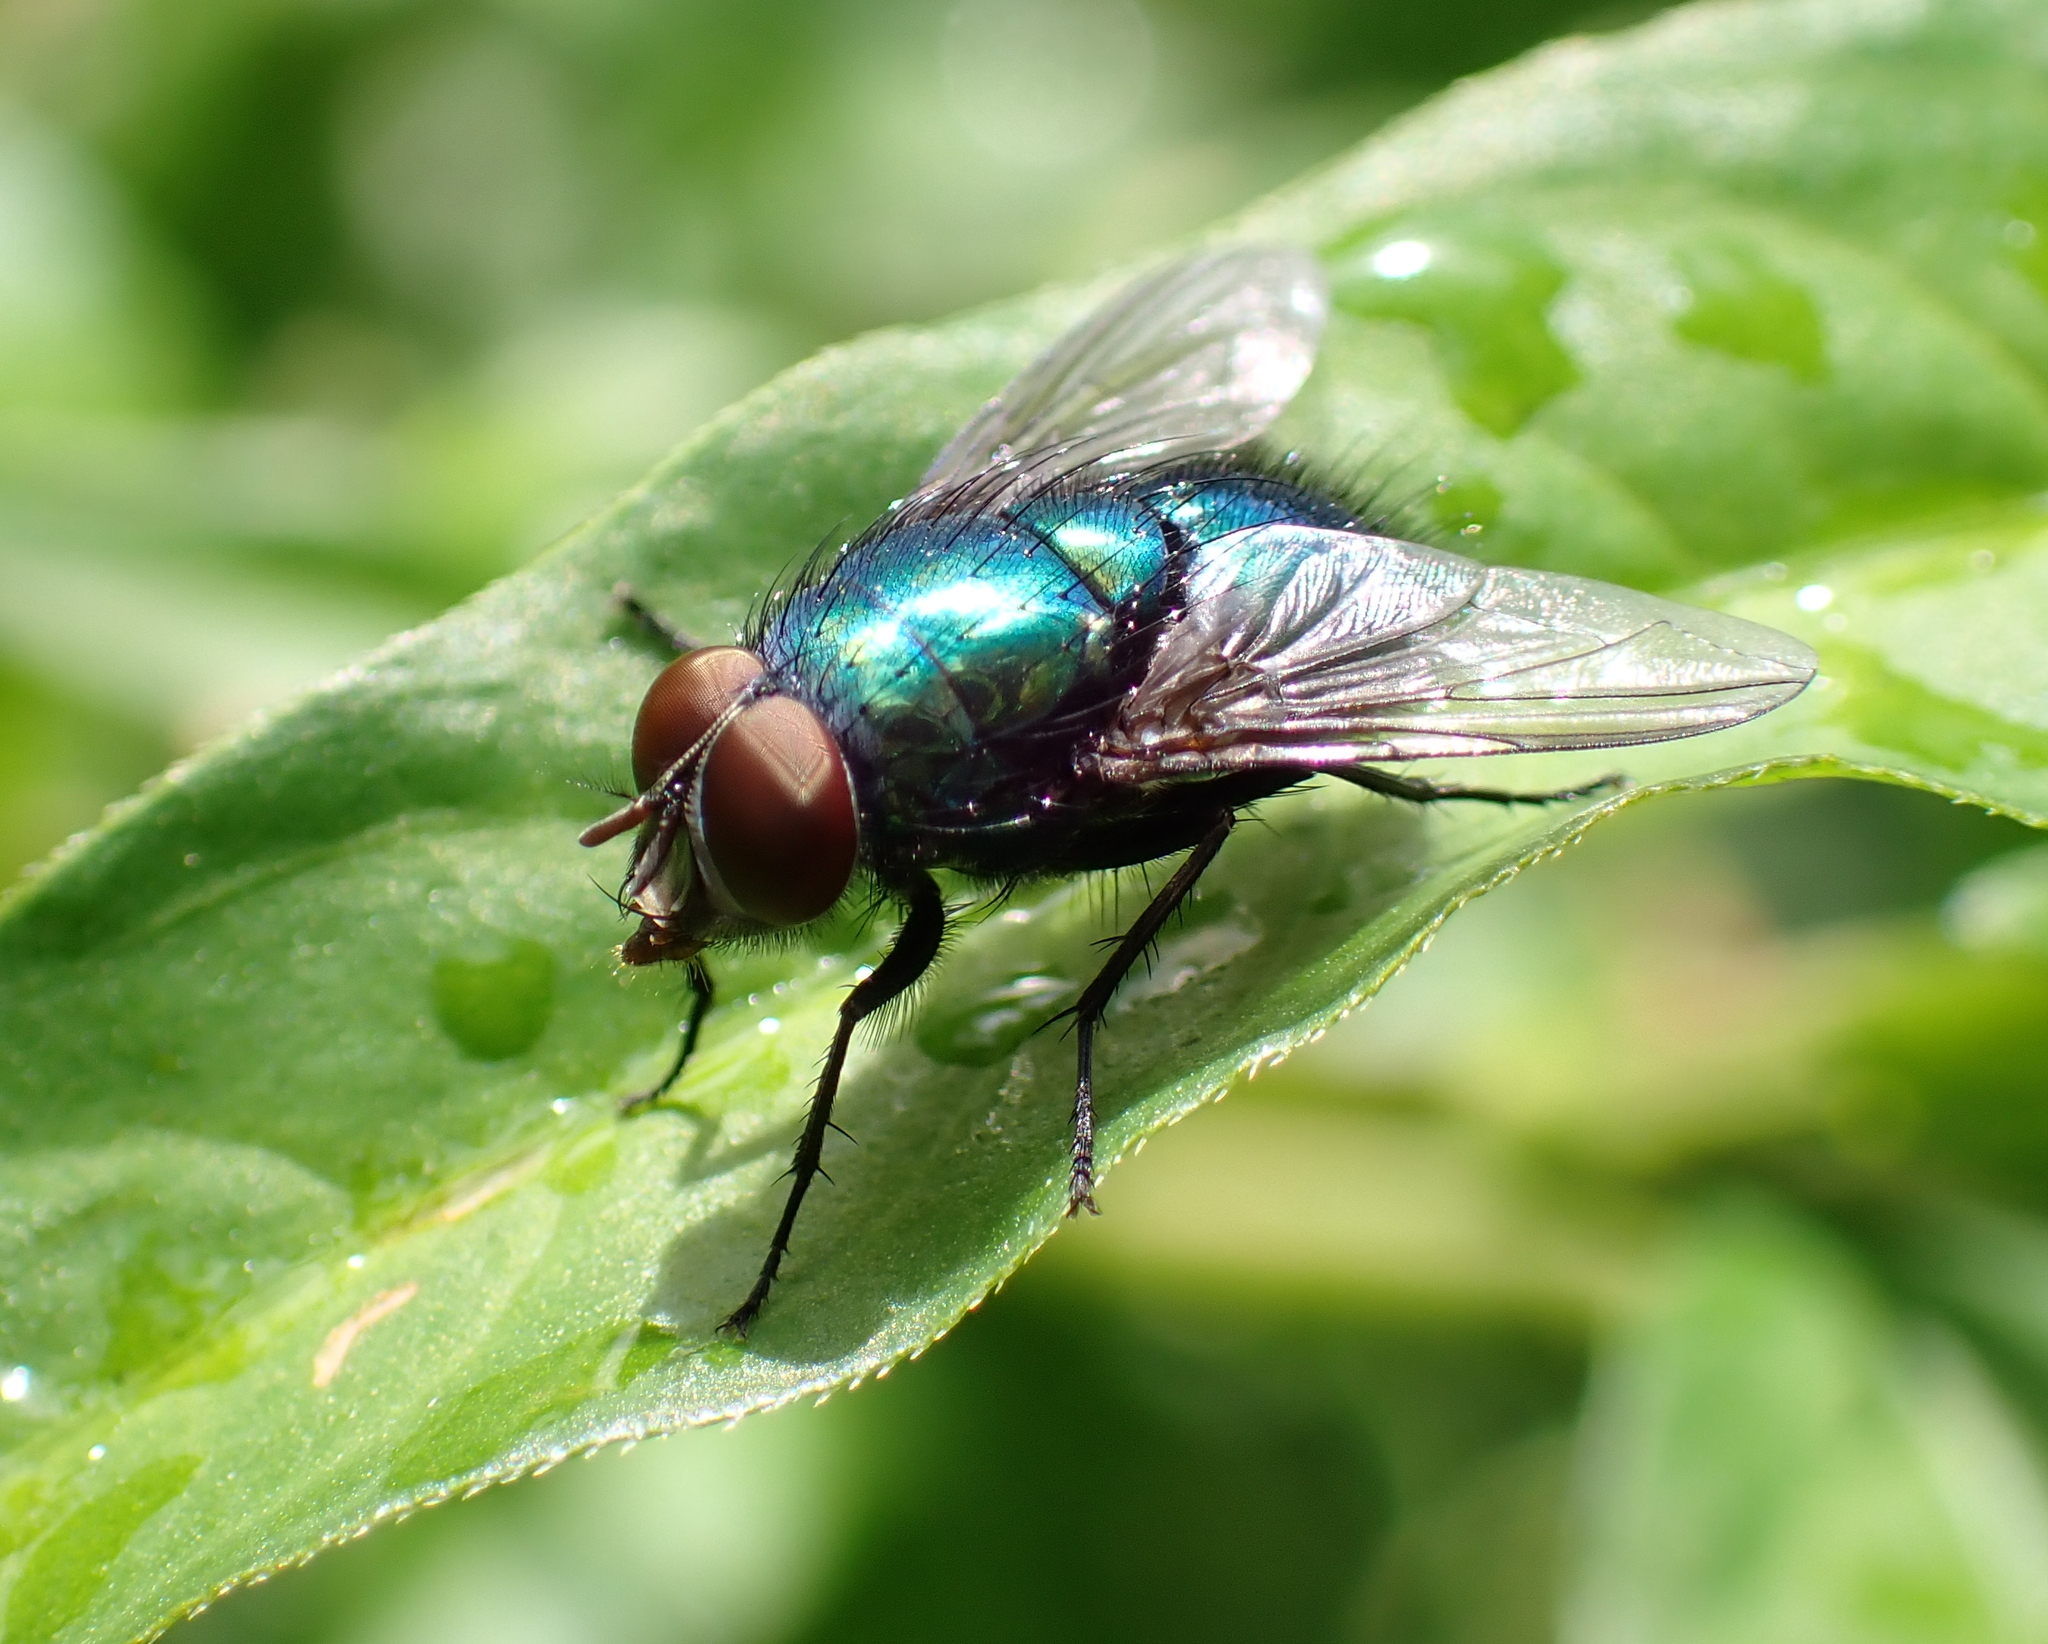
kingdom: Animalia
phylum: Arthropoda
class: Insecta
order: Diptera
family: Calliphoridae
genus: Lucilia
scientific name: Lucilia
